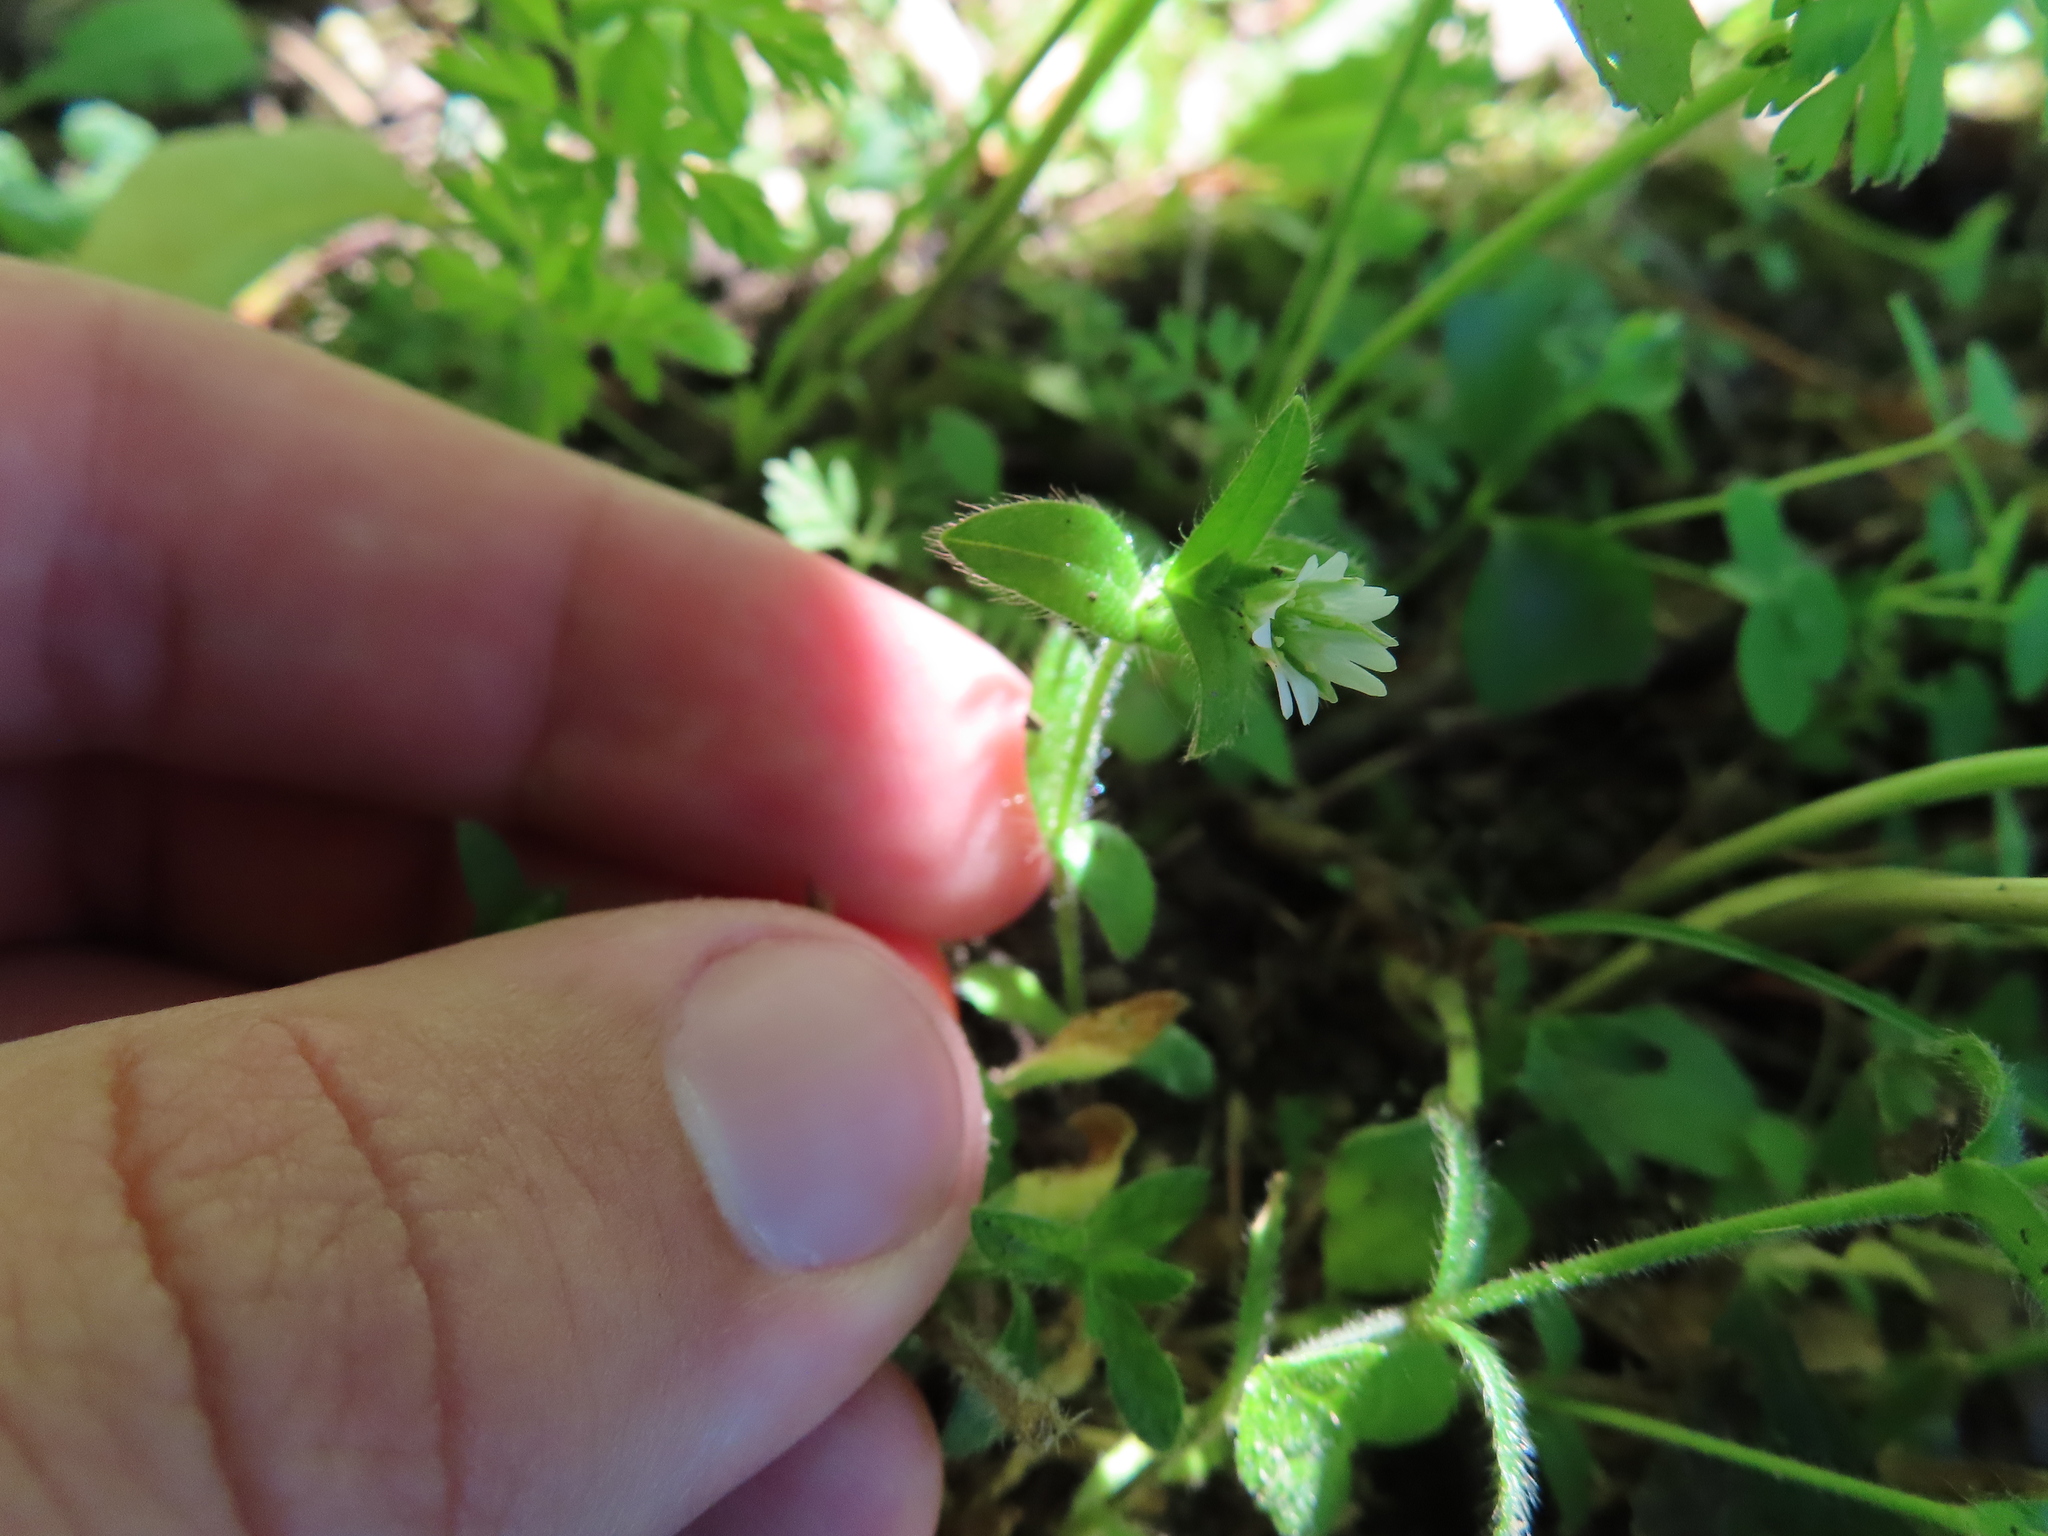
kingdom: Plantae
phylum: Tracheophyta
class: Magnoliopsida
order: Caryophyllales
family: Caryophyllaceae
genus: Cerastium
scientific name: Cerastium fontanum
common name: Common mouse-ear
